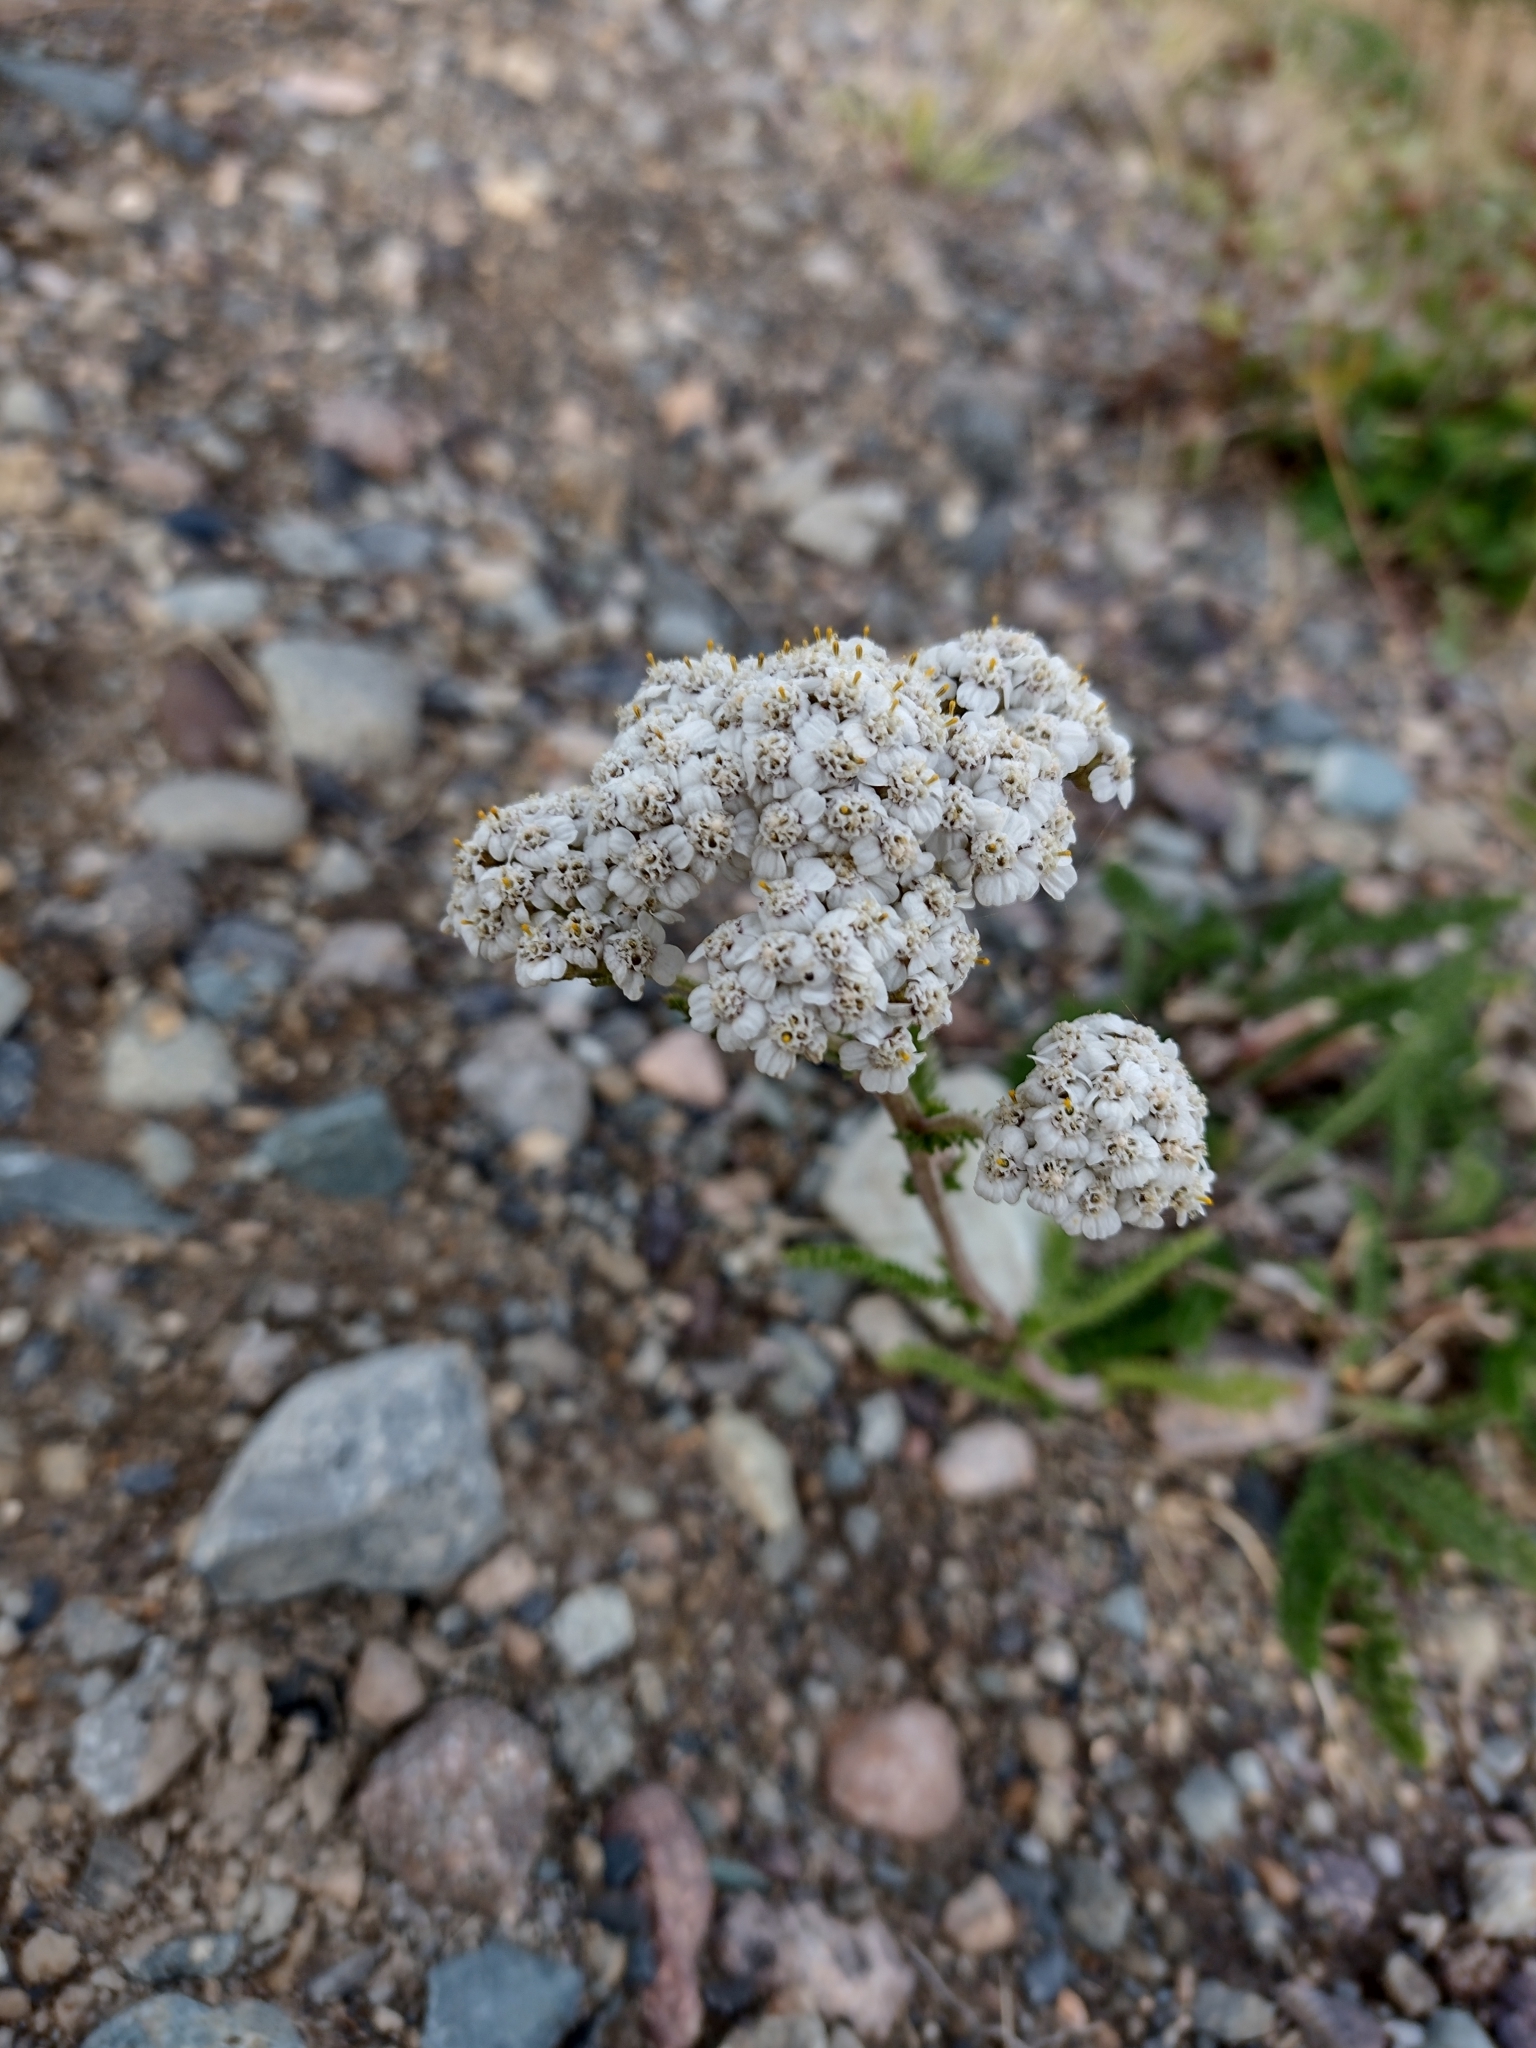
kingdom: Plantae
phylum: Tracheophyta
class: Magnoliopsida
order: Asterales
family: Asteraceae
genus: Achillea
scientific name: Achillea millefolium
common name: Yarrow
